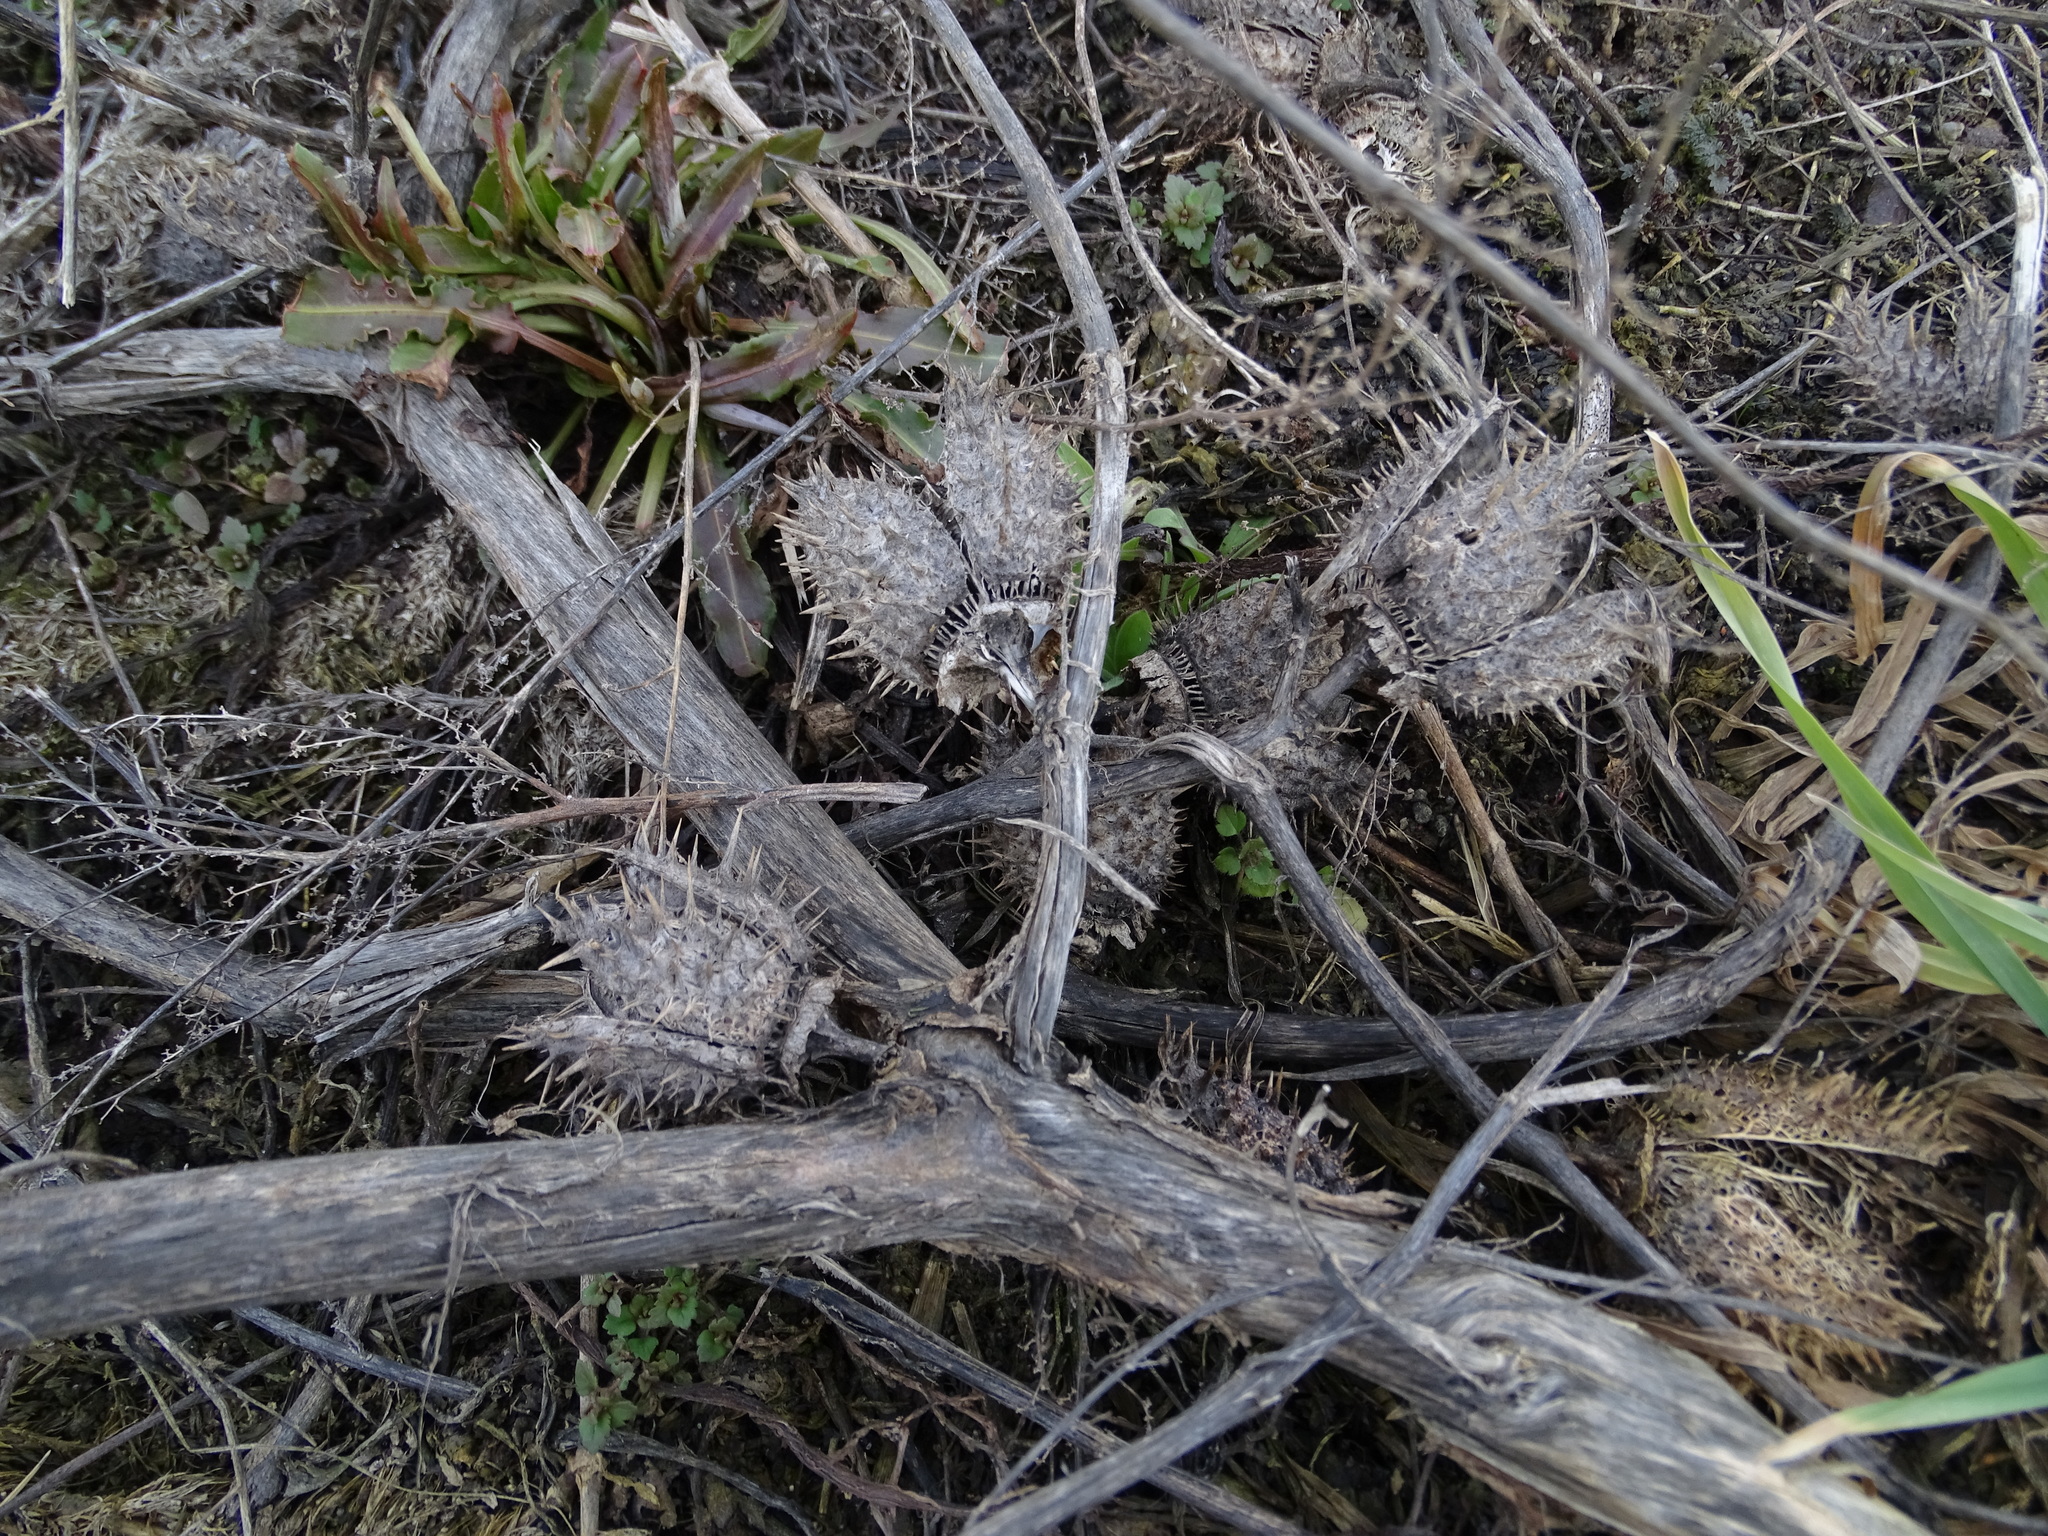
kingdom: Plantae
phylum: Tracheophyta
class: Magnoliopsida
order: Solanales
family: Solanaceae
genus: Datura
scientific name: Datura stramonium
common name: Thorn-apple
